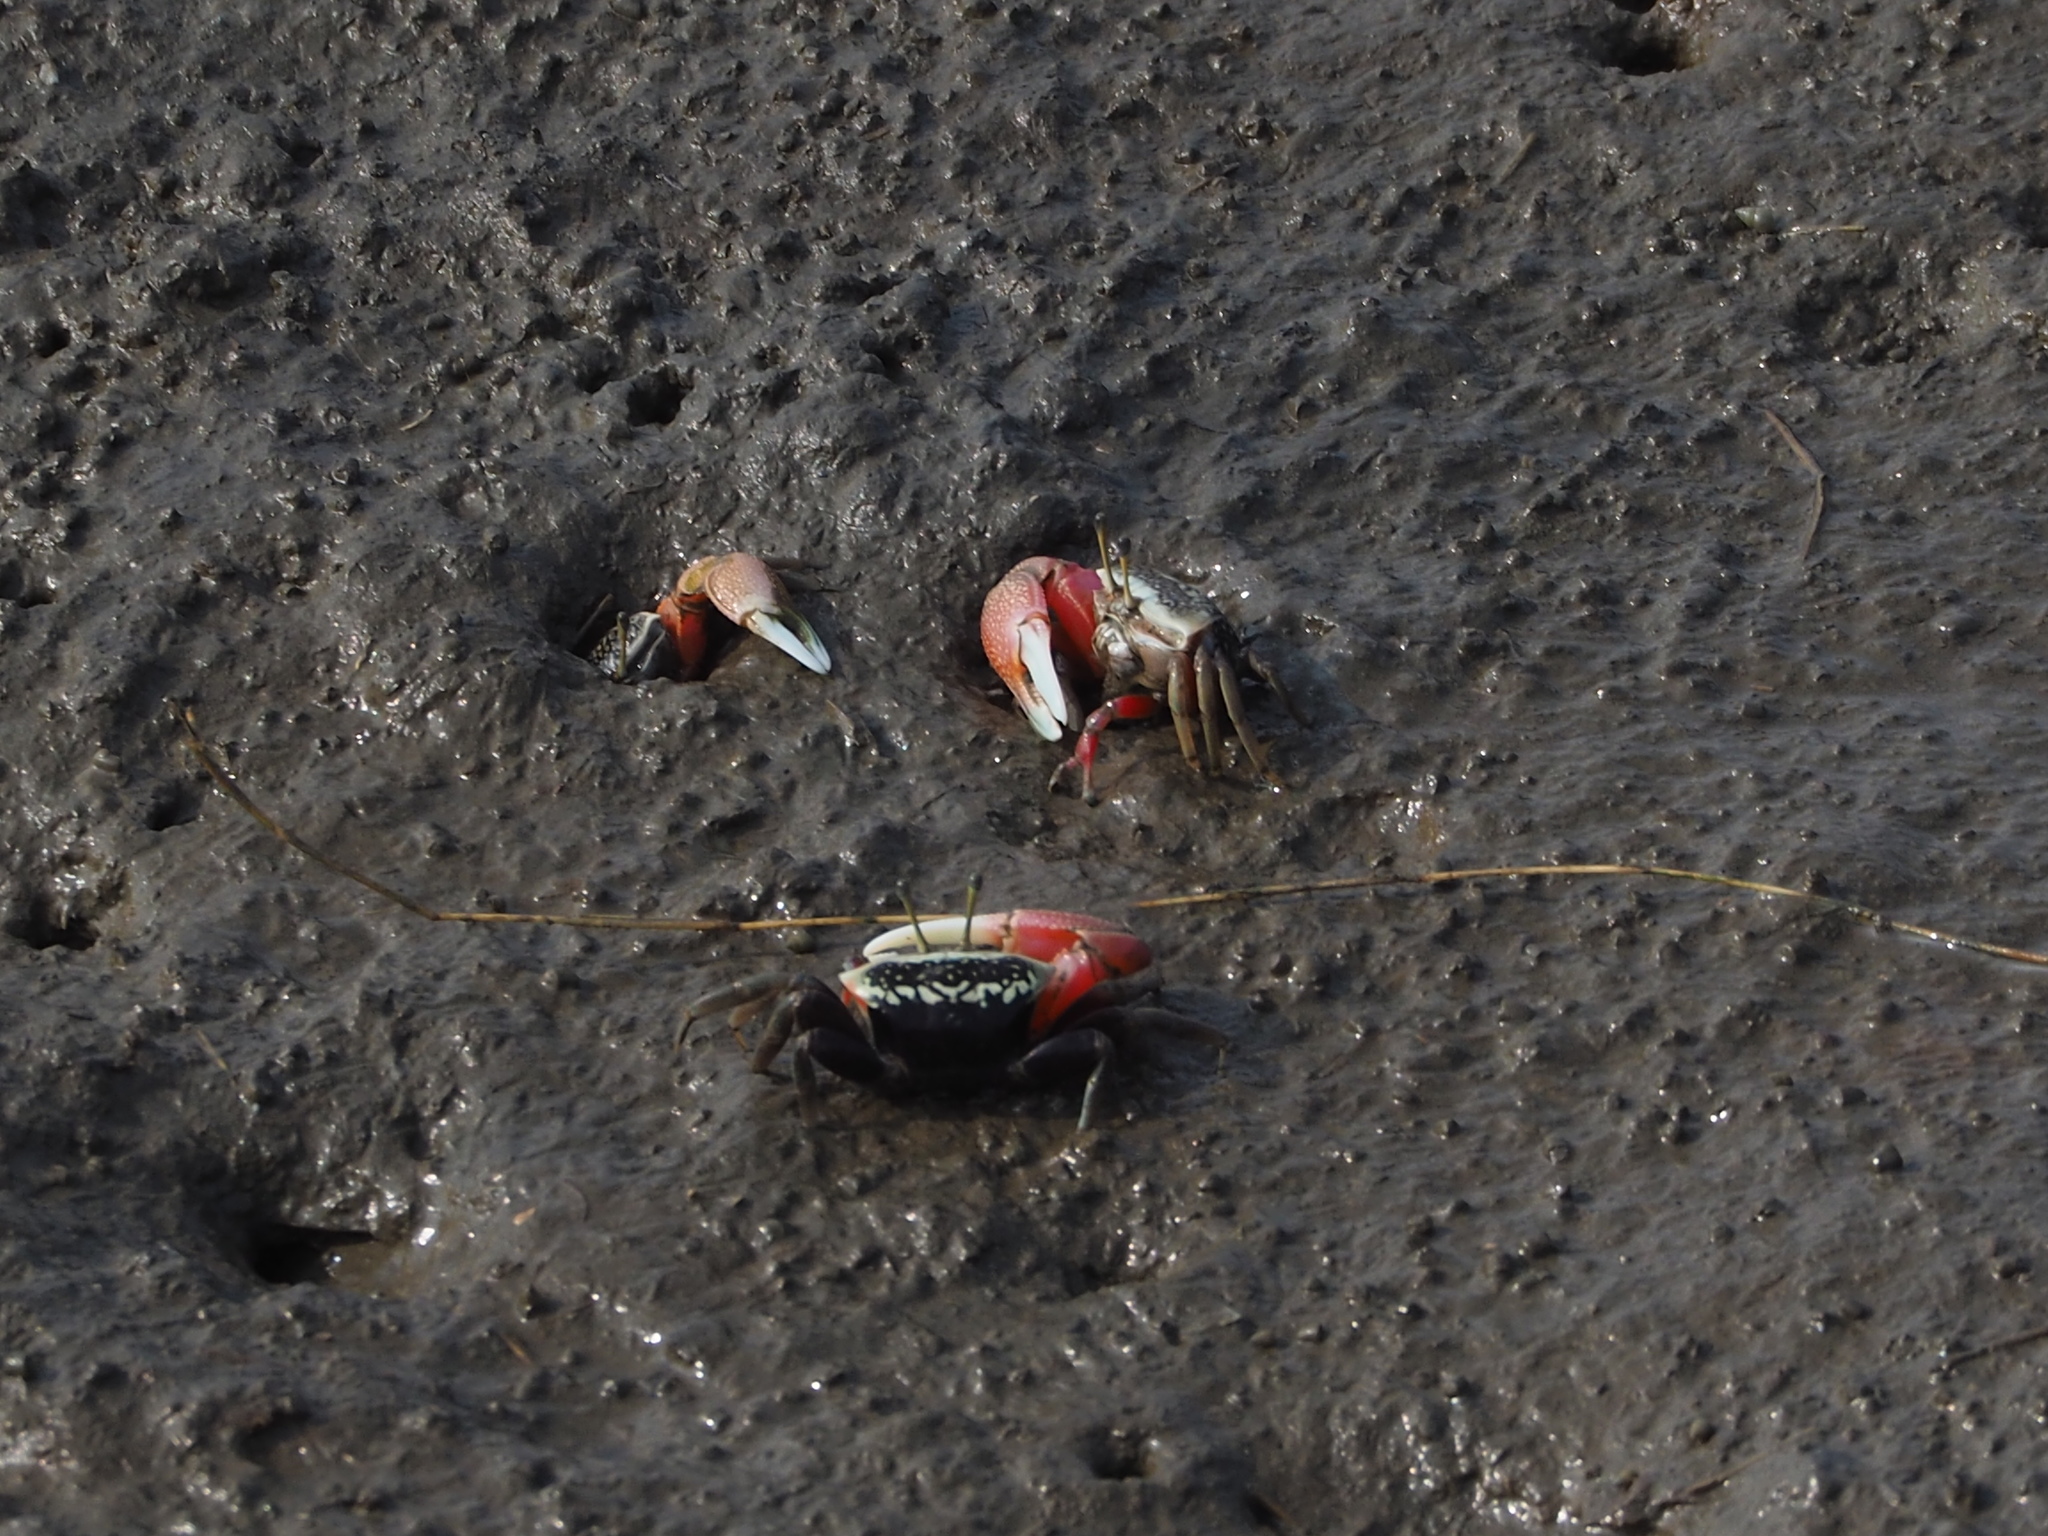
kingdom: Animalia
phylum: Arthropoda
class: Malacostraca
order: Decapoda
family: Ocypodidae
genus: Tubuca
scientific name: Tubuca arcuata
